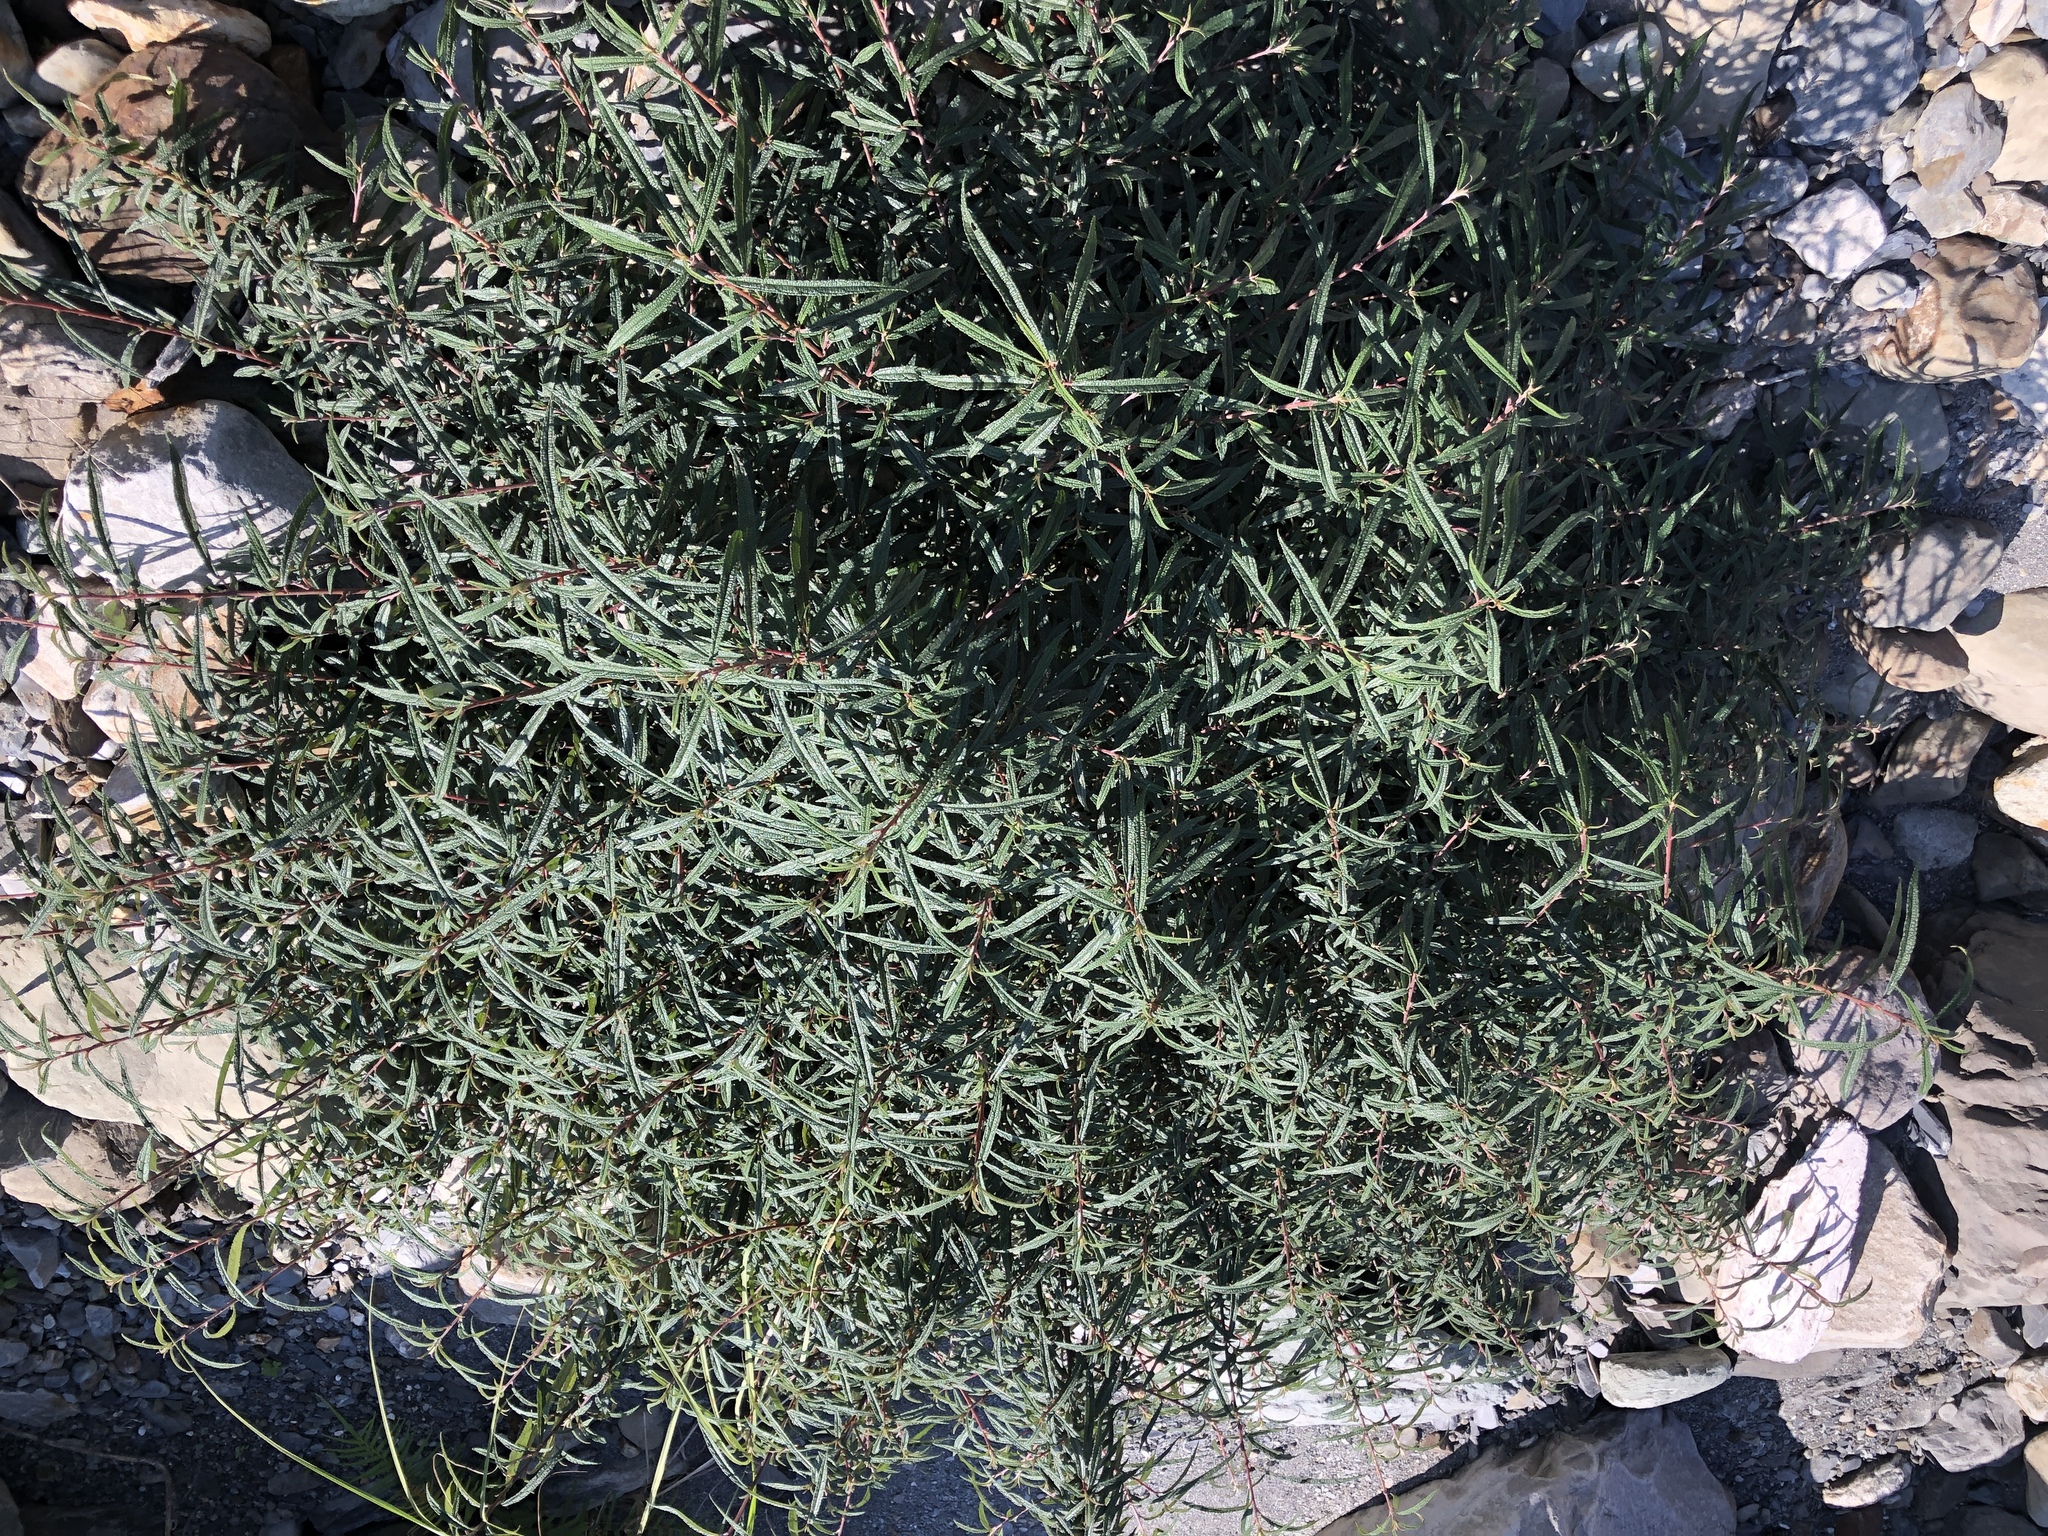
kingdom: Plantae
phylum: Tracheophyta
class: Magnoliopsida
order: Rosales
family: Urticaceae
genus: Debregeasia
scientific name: Debregeasia orientalis
